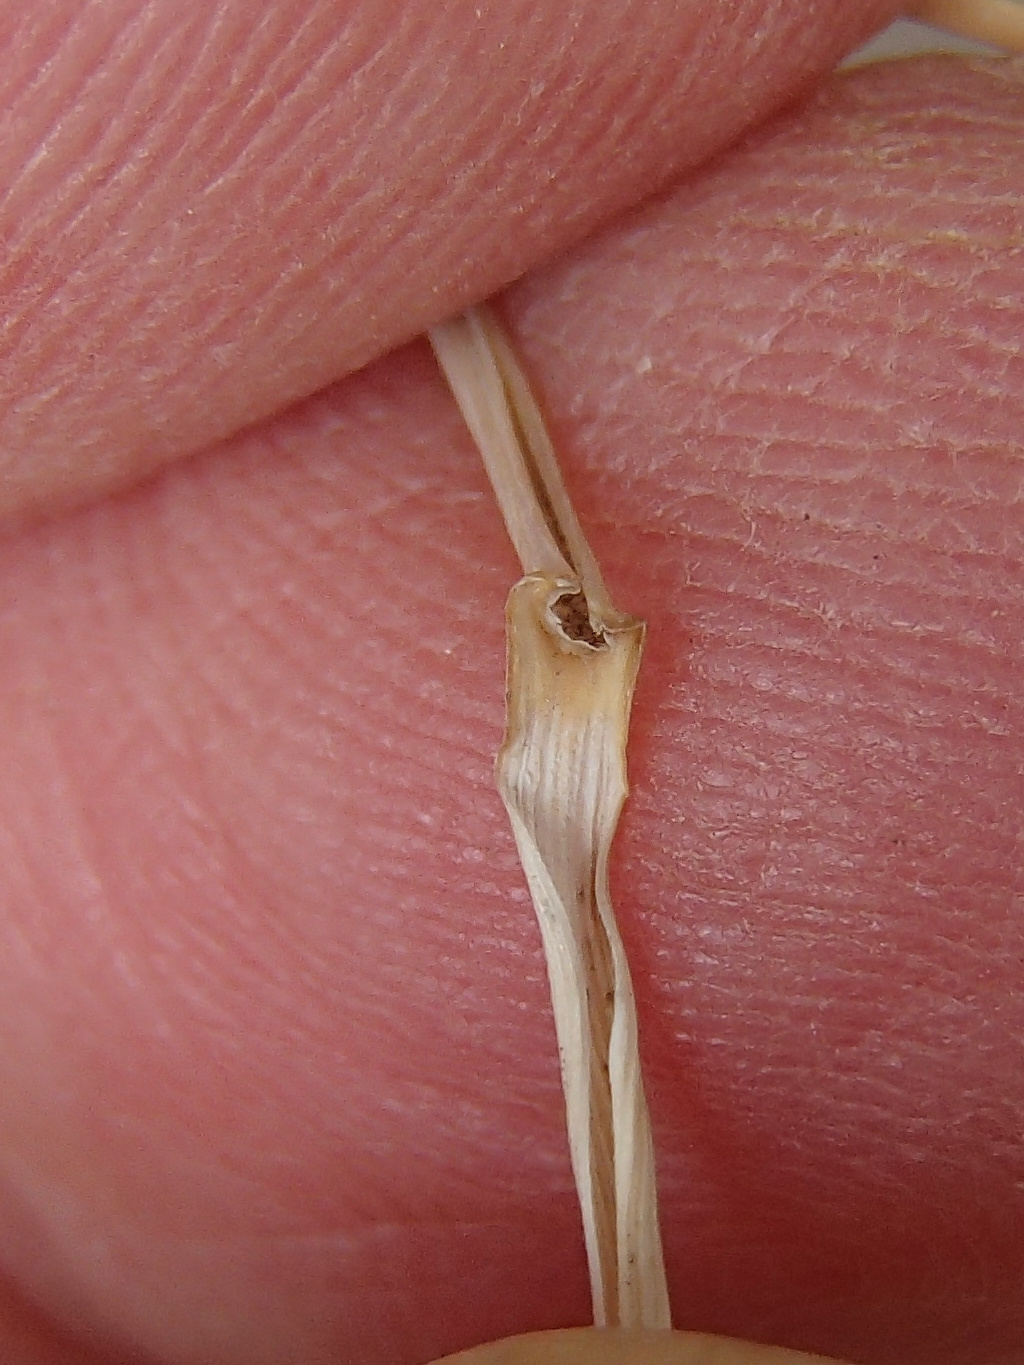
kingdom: Plantae
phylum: Tracheophyta
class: Liliopsida
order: Poales
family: Poaceae
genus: Pseudoroegneria
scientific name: Pseudoroegneria spicata
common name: Bluebunch wheatgrass
